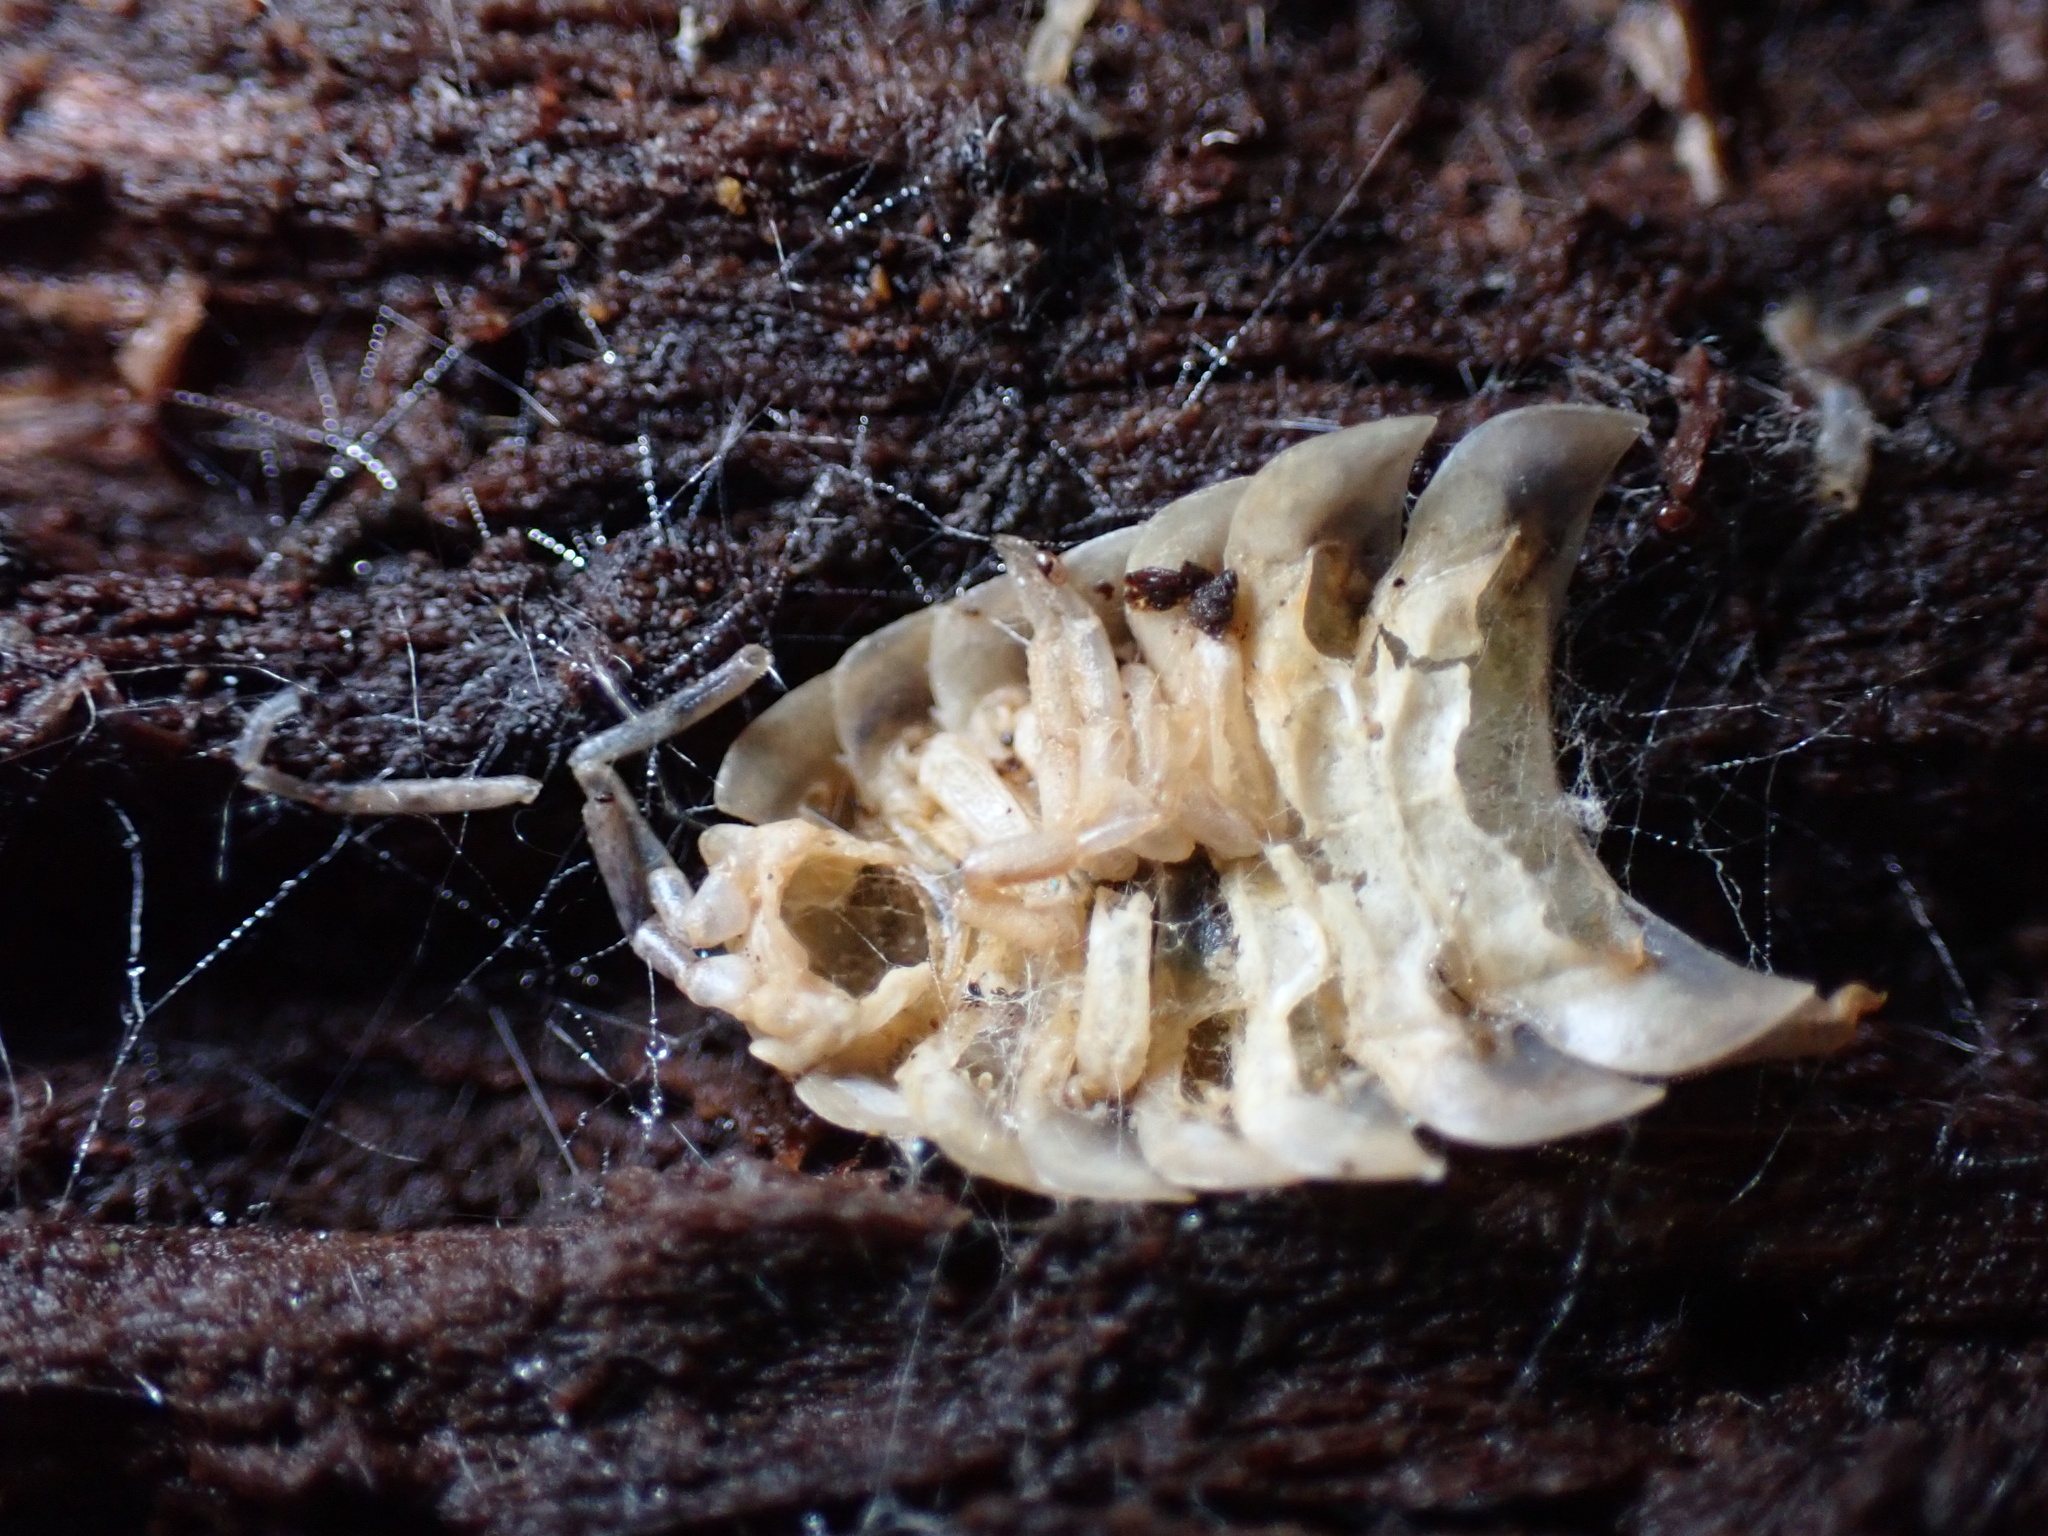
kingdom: Animalia
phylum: Arthropoda
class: Malacostraca
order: Isopoda
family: Oniscidae
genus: Oniscus
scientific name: Oniscus asellus
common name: Common shiny woodlouse
